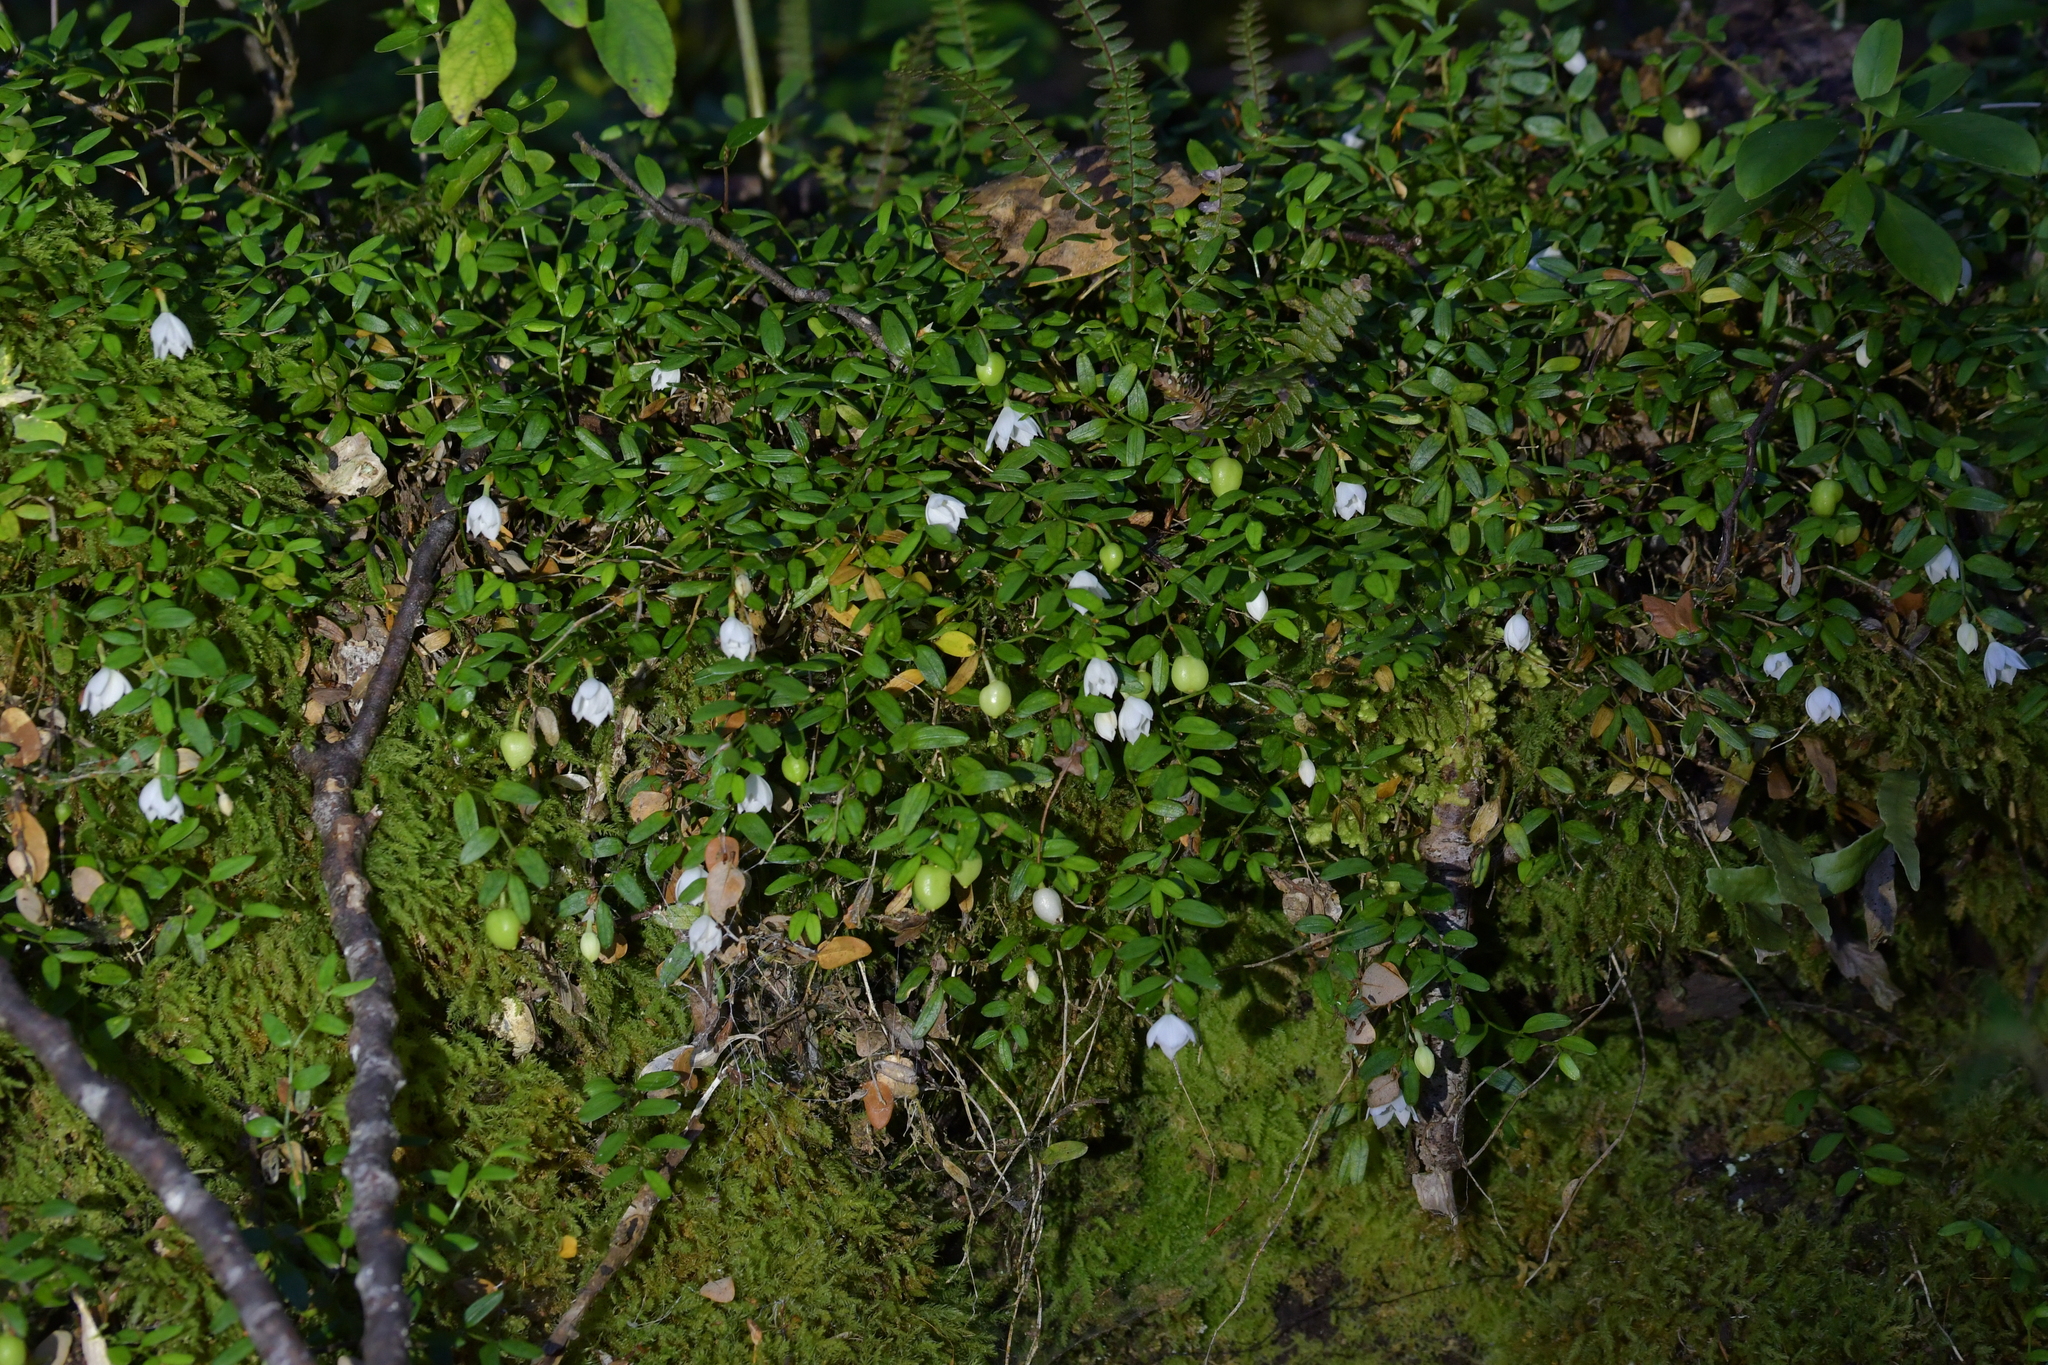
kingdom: Plantae
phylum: Tracheophyta
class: Liliopsida
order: Liliales
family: Alstroemeriaceae
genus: Luzuriaga
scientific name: Luzuriaga parviflora
